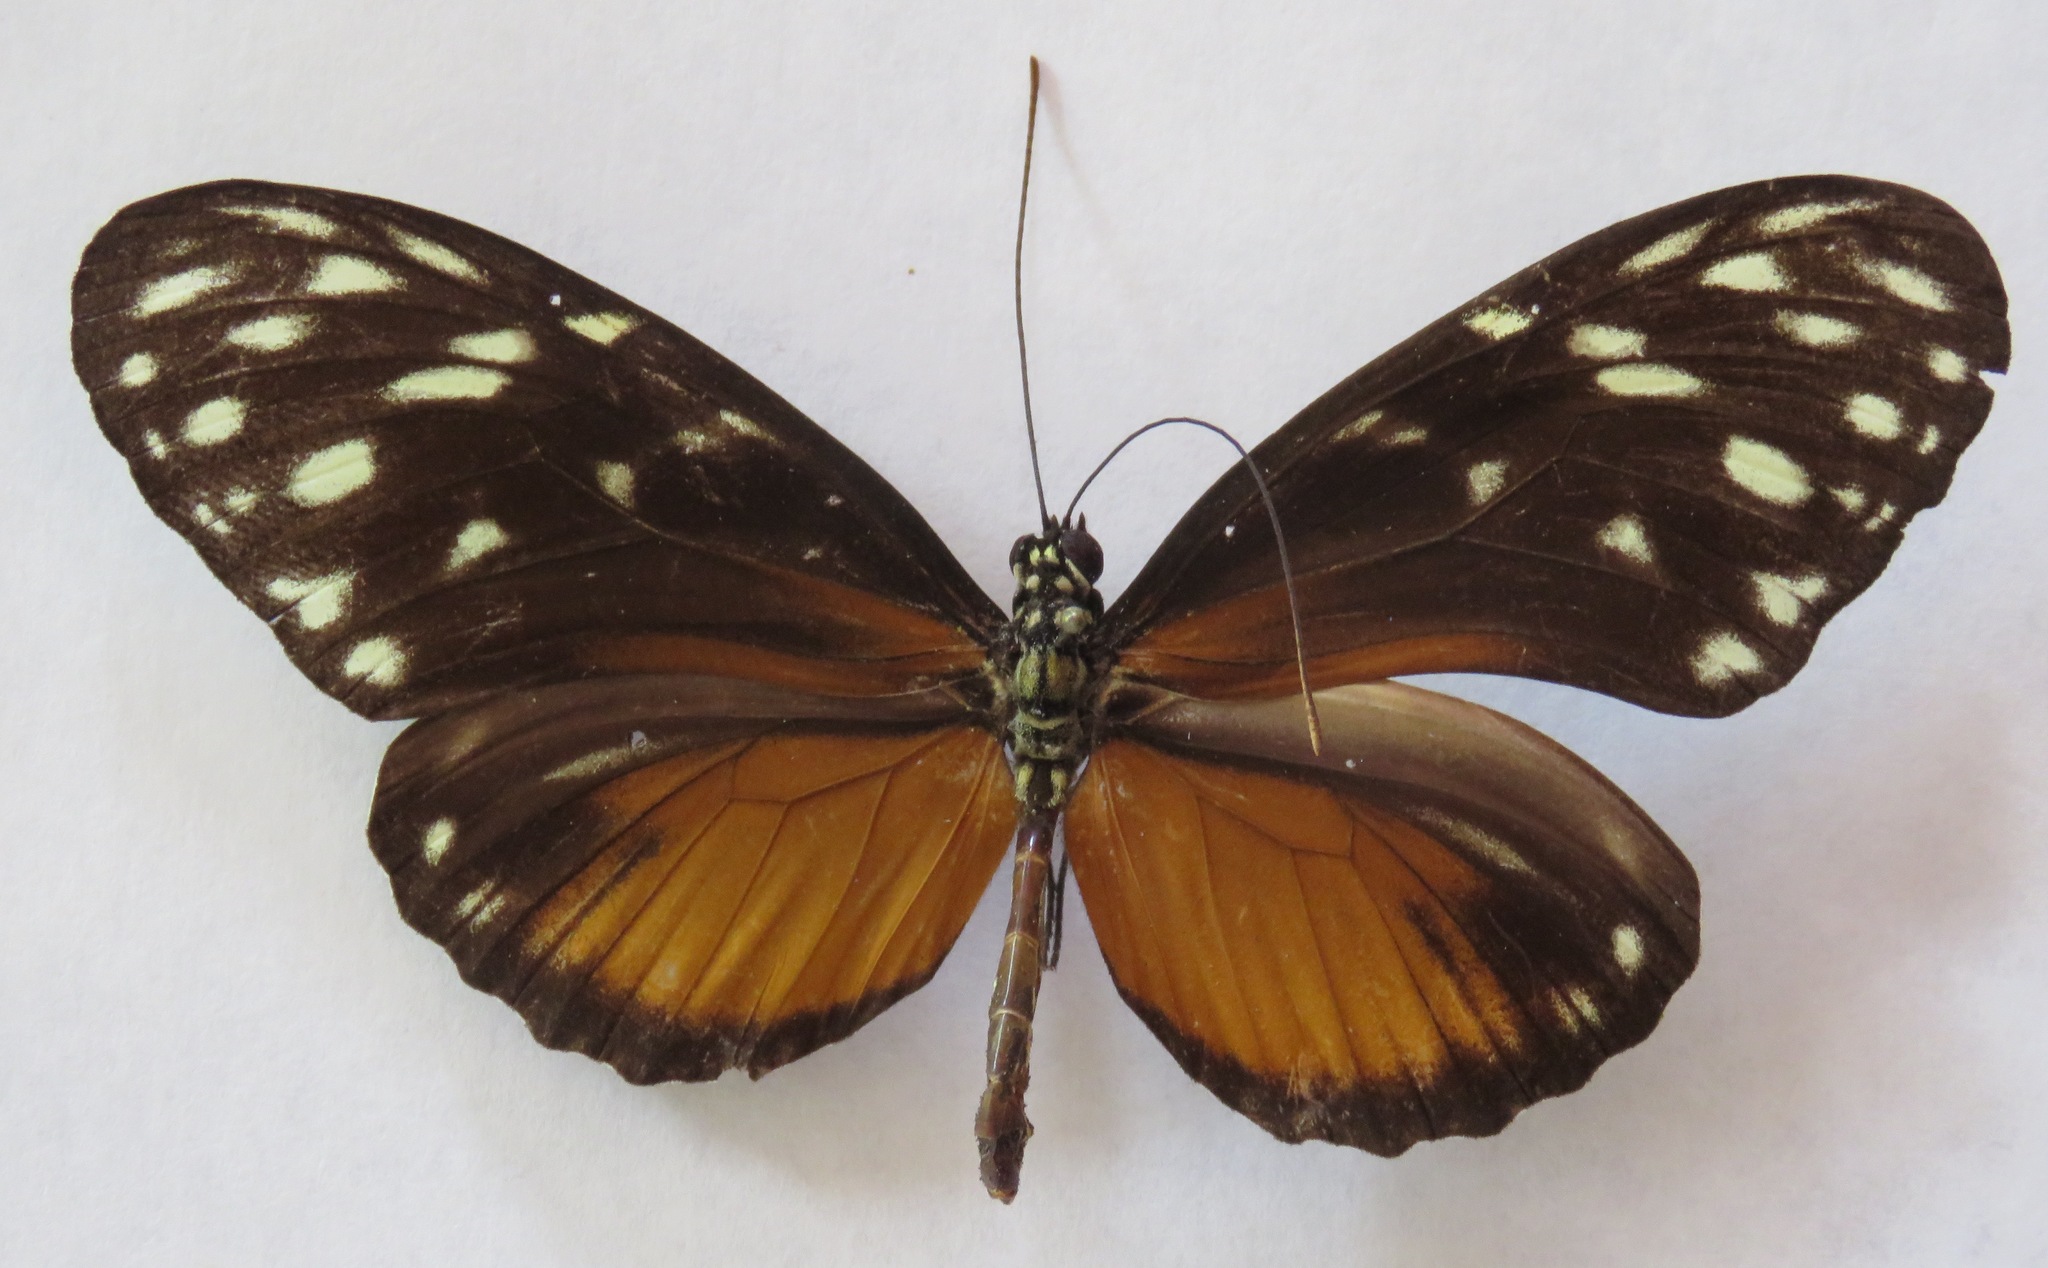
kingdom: Animalia
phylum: Arthropoda
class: Insecta
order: Lepidoptera
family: Nymphalidae
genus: Heliconius
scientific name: Heliconius hecale
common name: Tiger longwing
